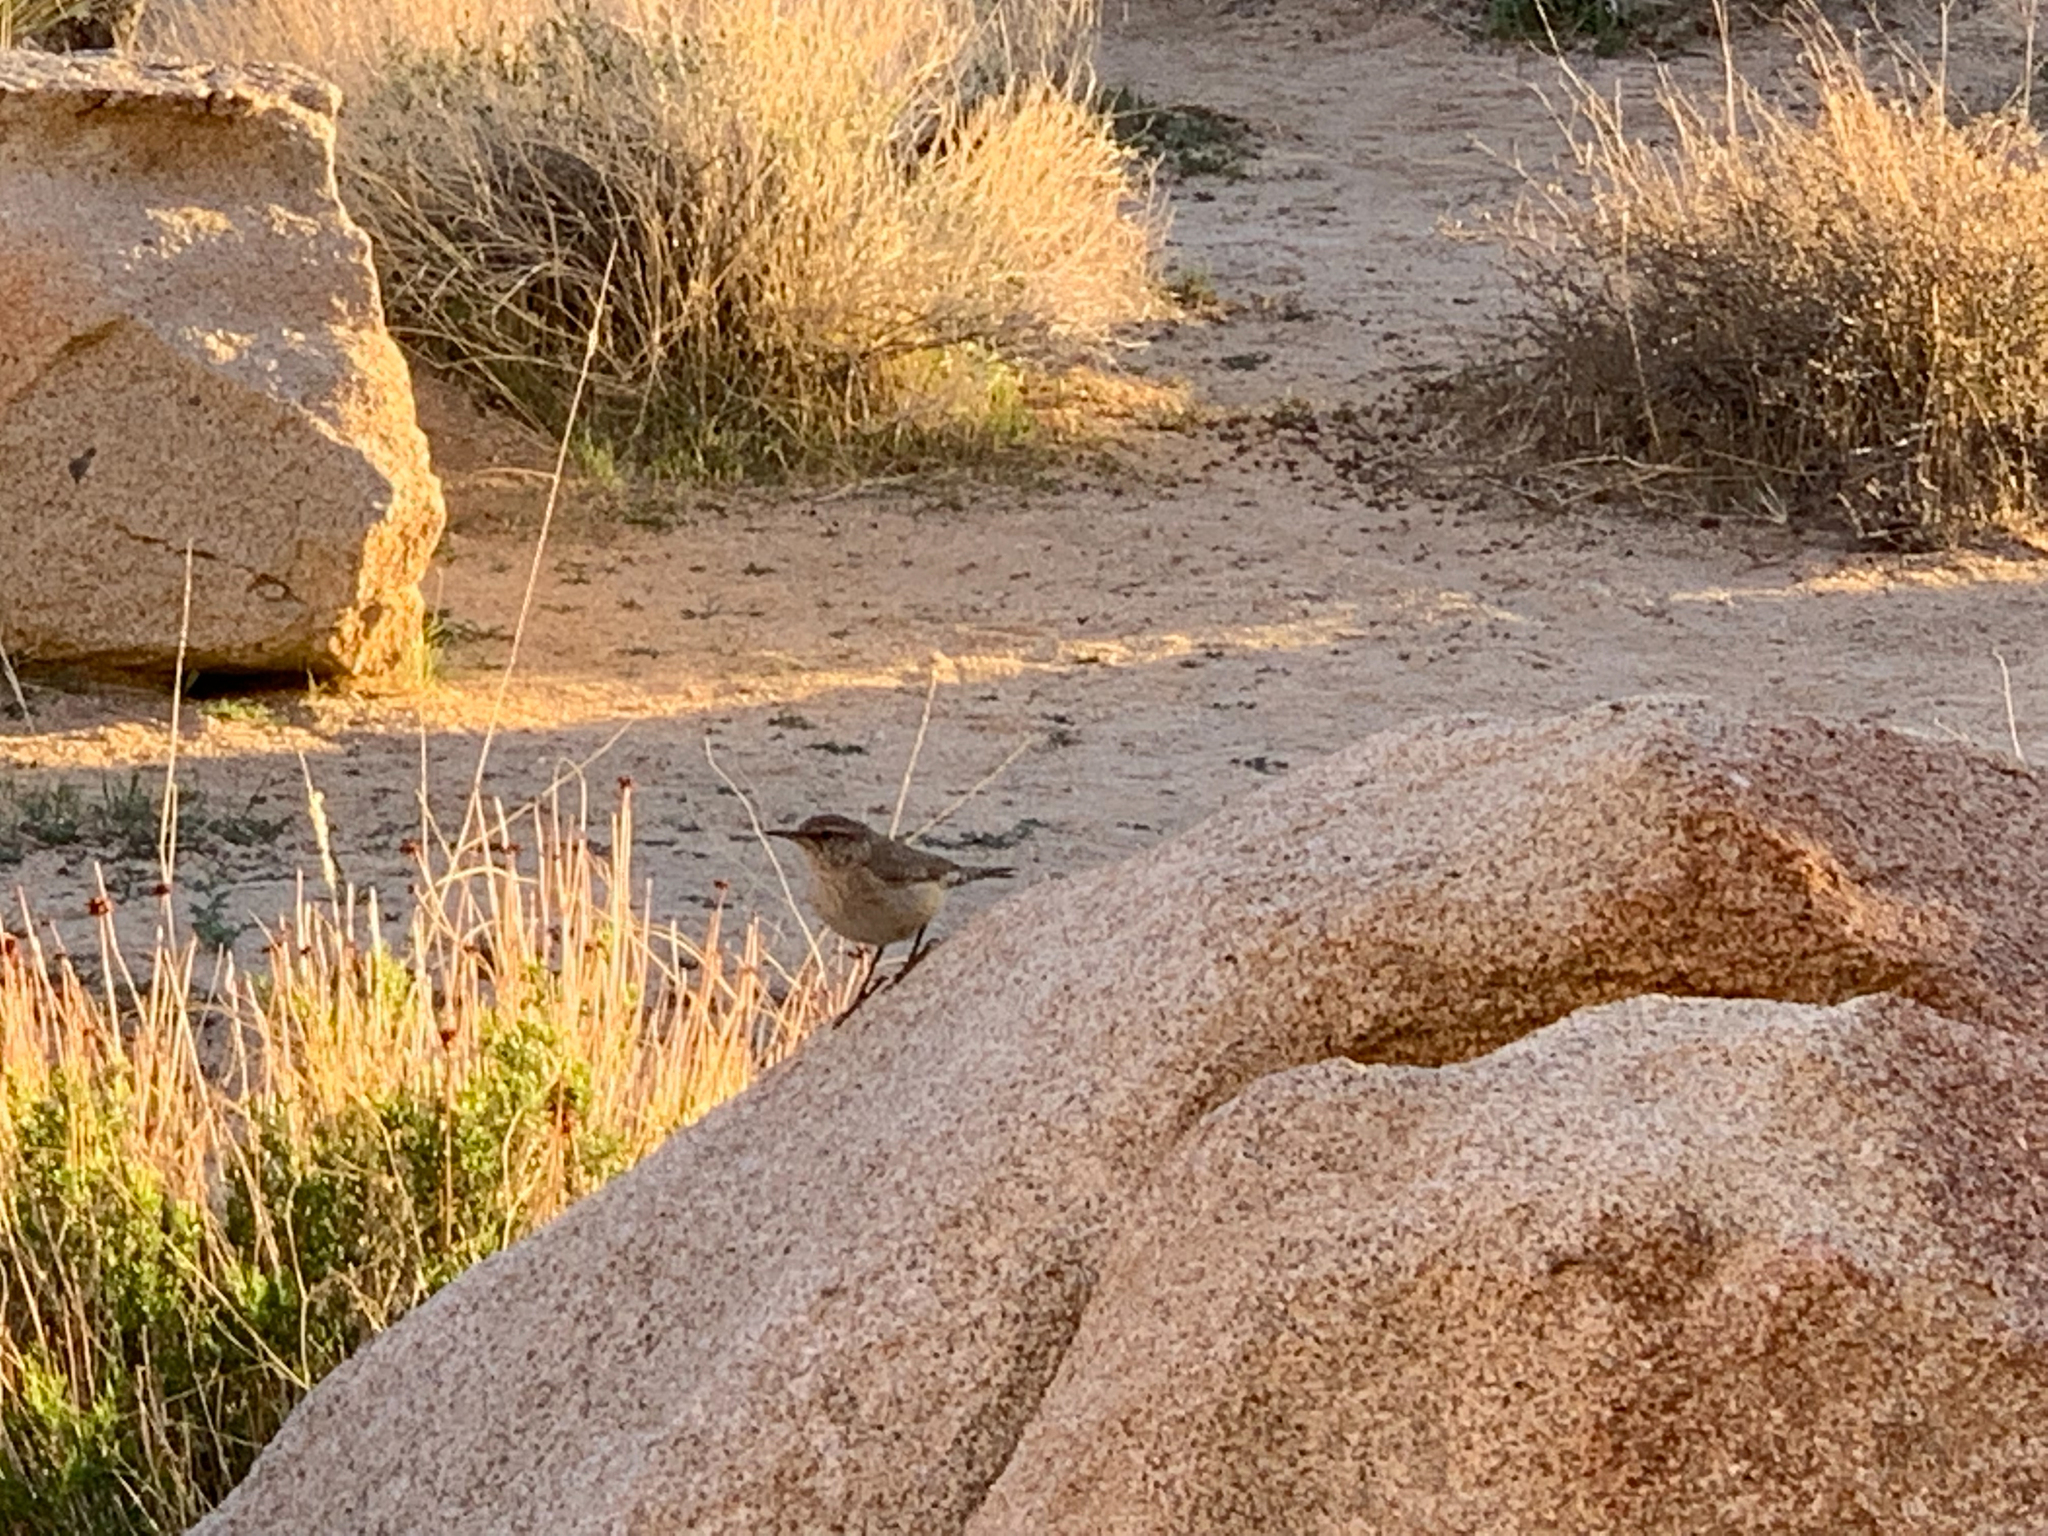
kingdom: Animalia
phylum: Chordata
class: Aves
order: Passeriformes
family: Troglodytidae
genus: Salpinctes
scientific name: Salpinctes obsoletus
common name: Rock wren
